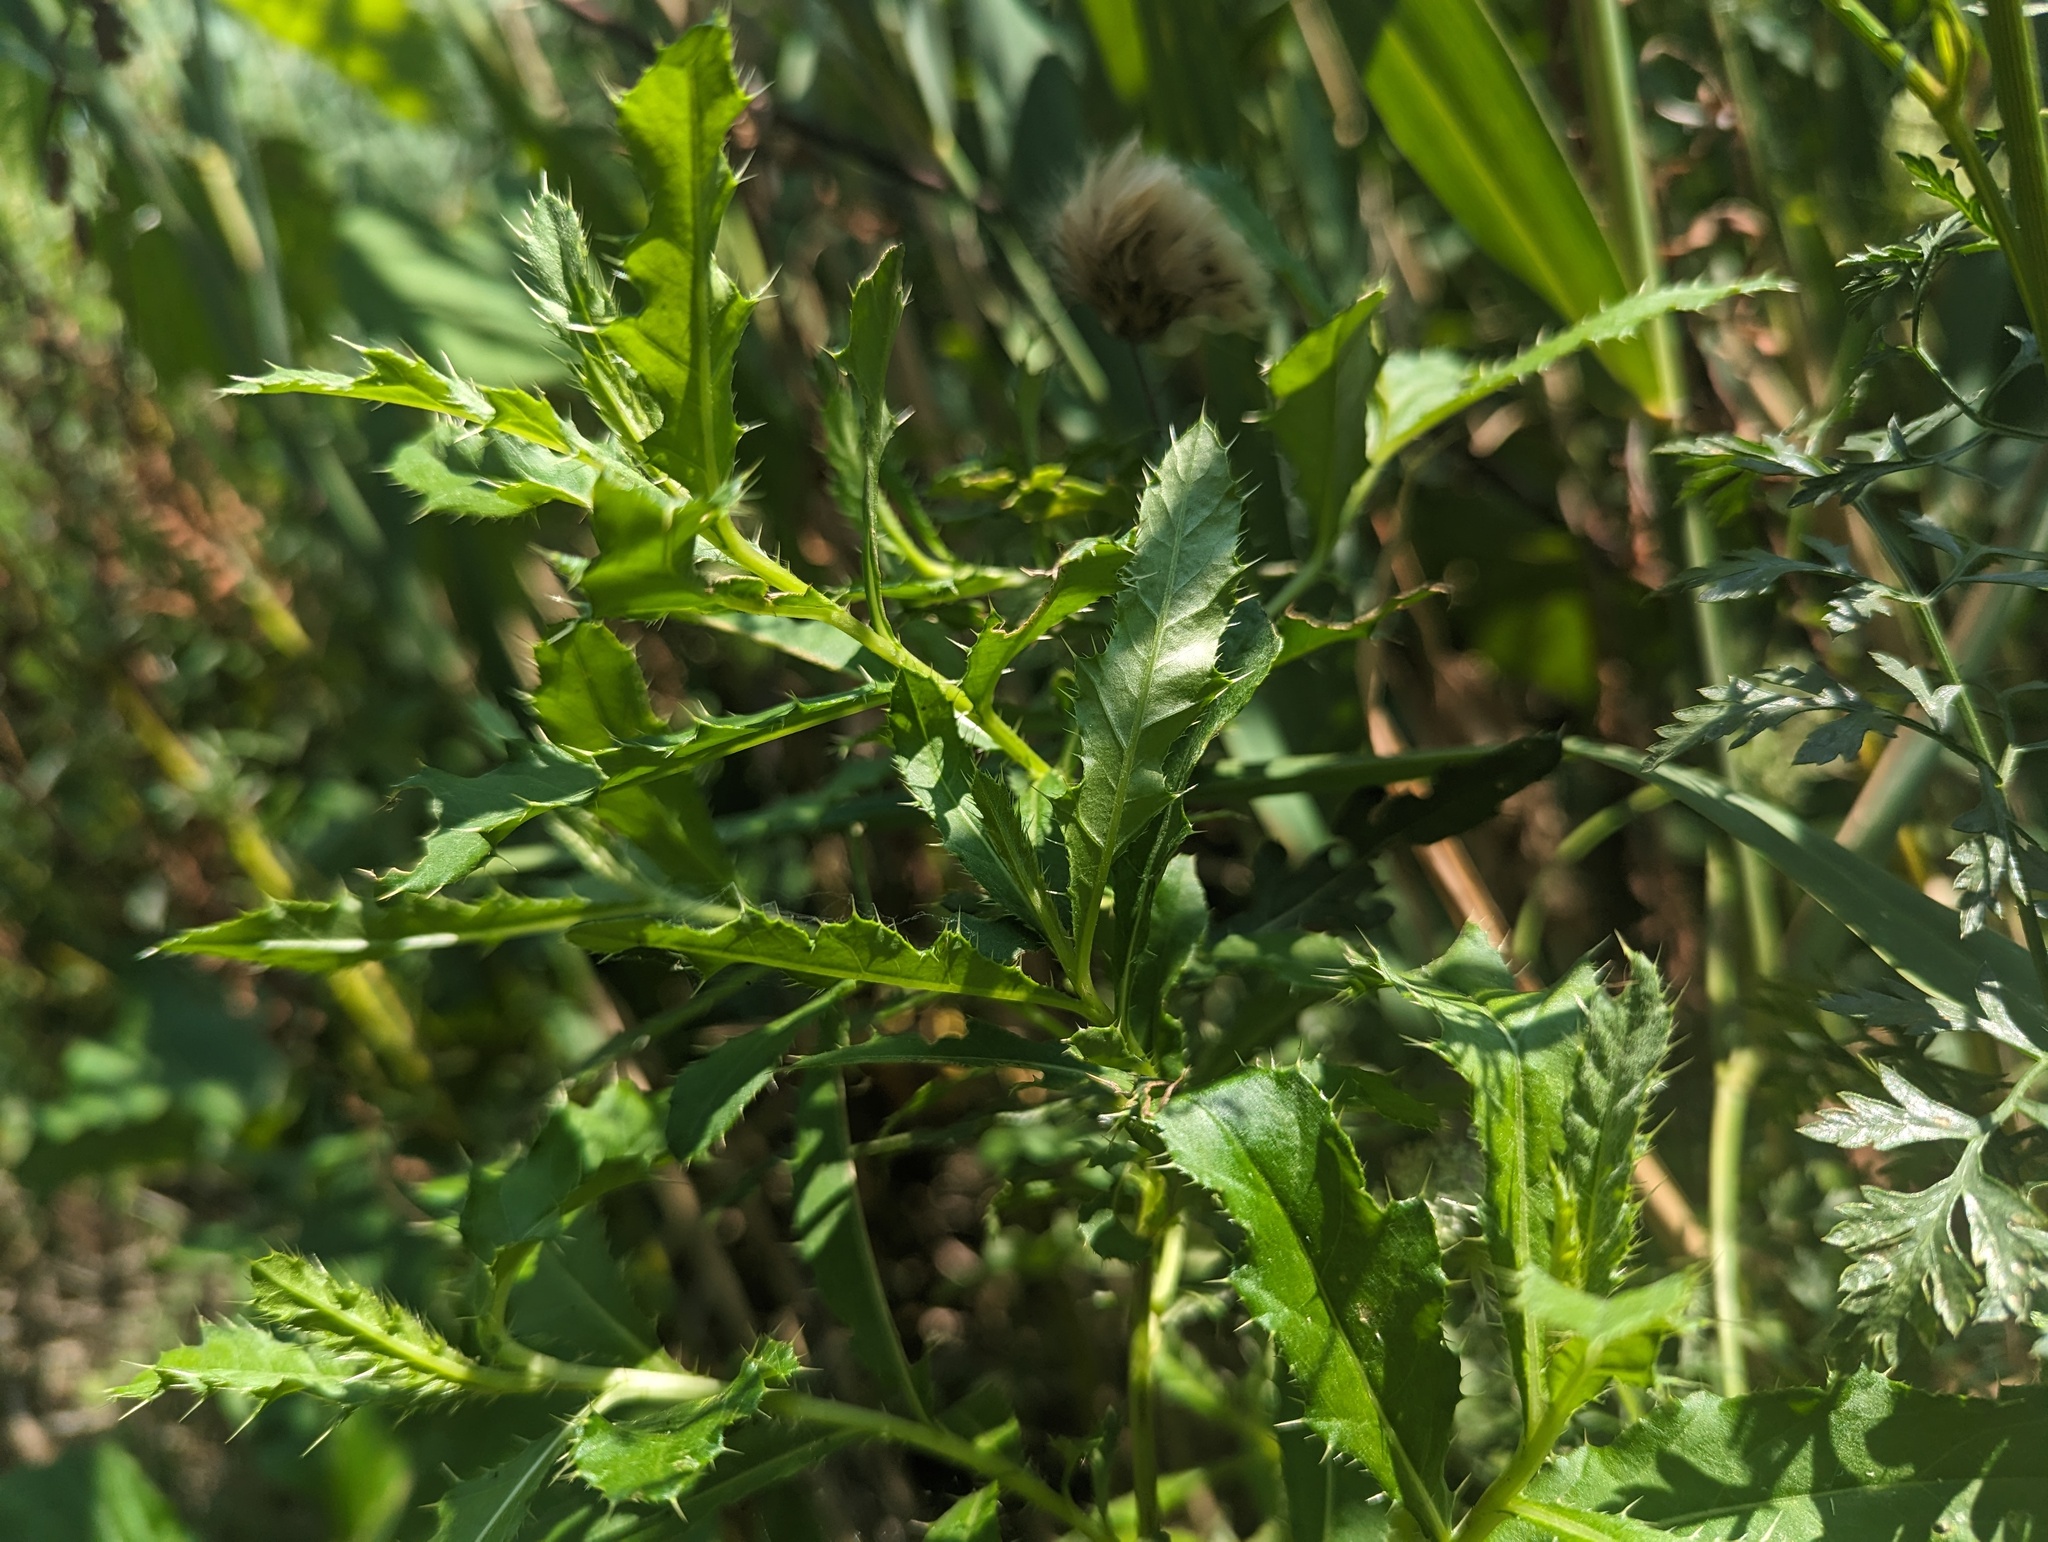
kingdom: Plantae
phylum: Tracheophyta
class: Magnoliopsida
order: Asterales
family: Asteraceae
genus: Cirsium
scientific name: Cirsium arvense
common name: Creeping thistle
